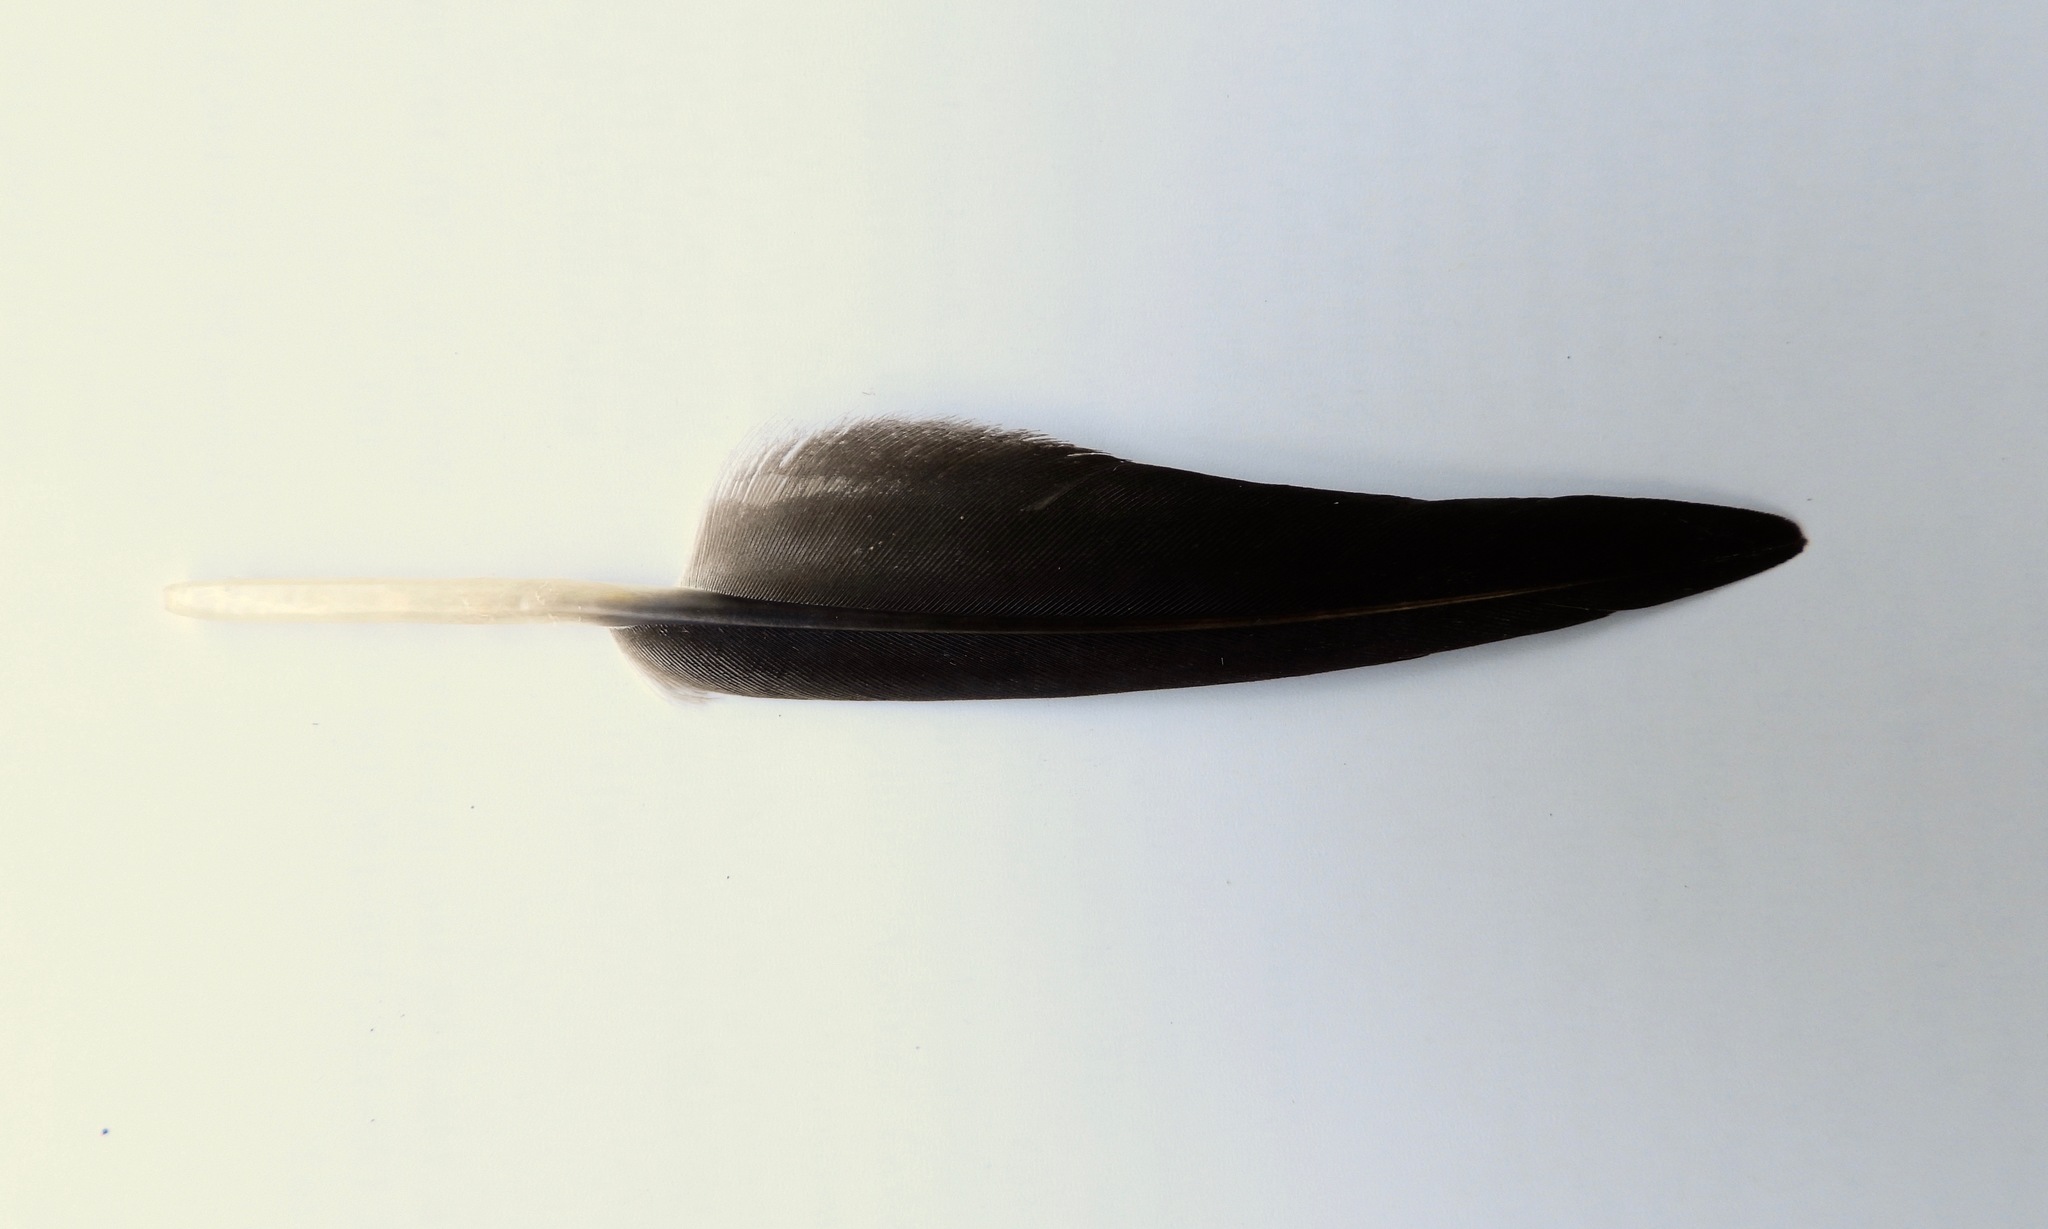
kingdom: Animalia
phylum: Chordata
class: Aves
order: Accipitriformes
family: Cathartidae
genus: Coragyps
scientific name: Coragyps atratus
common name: Black vulture
